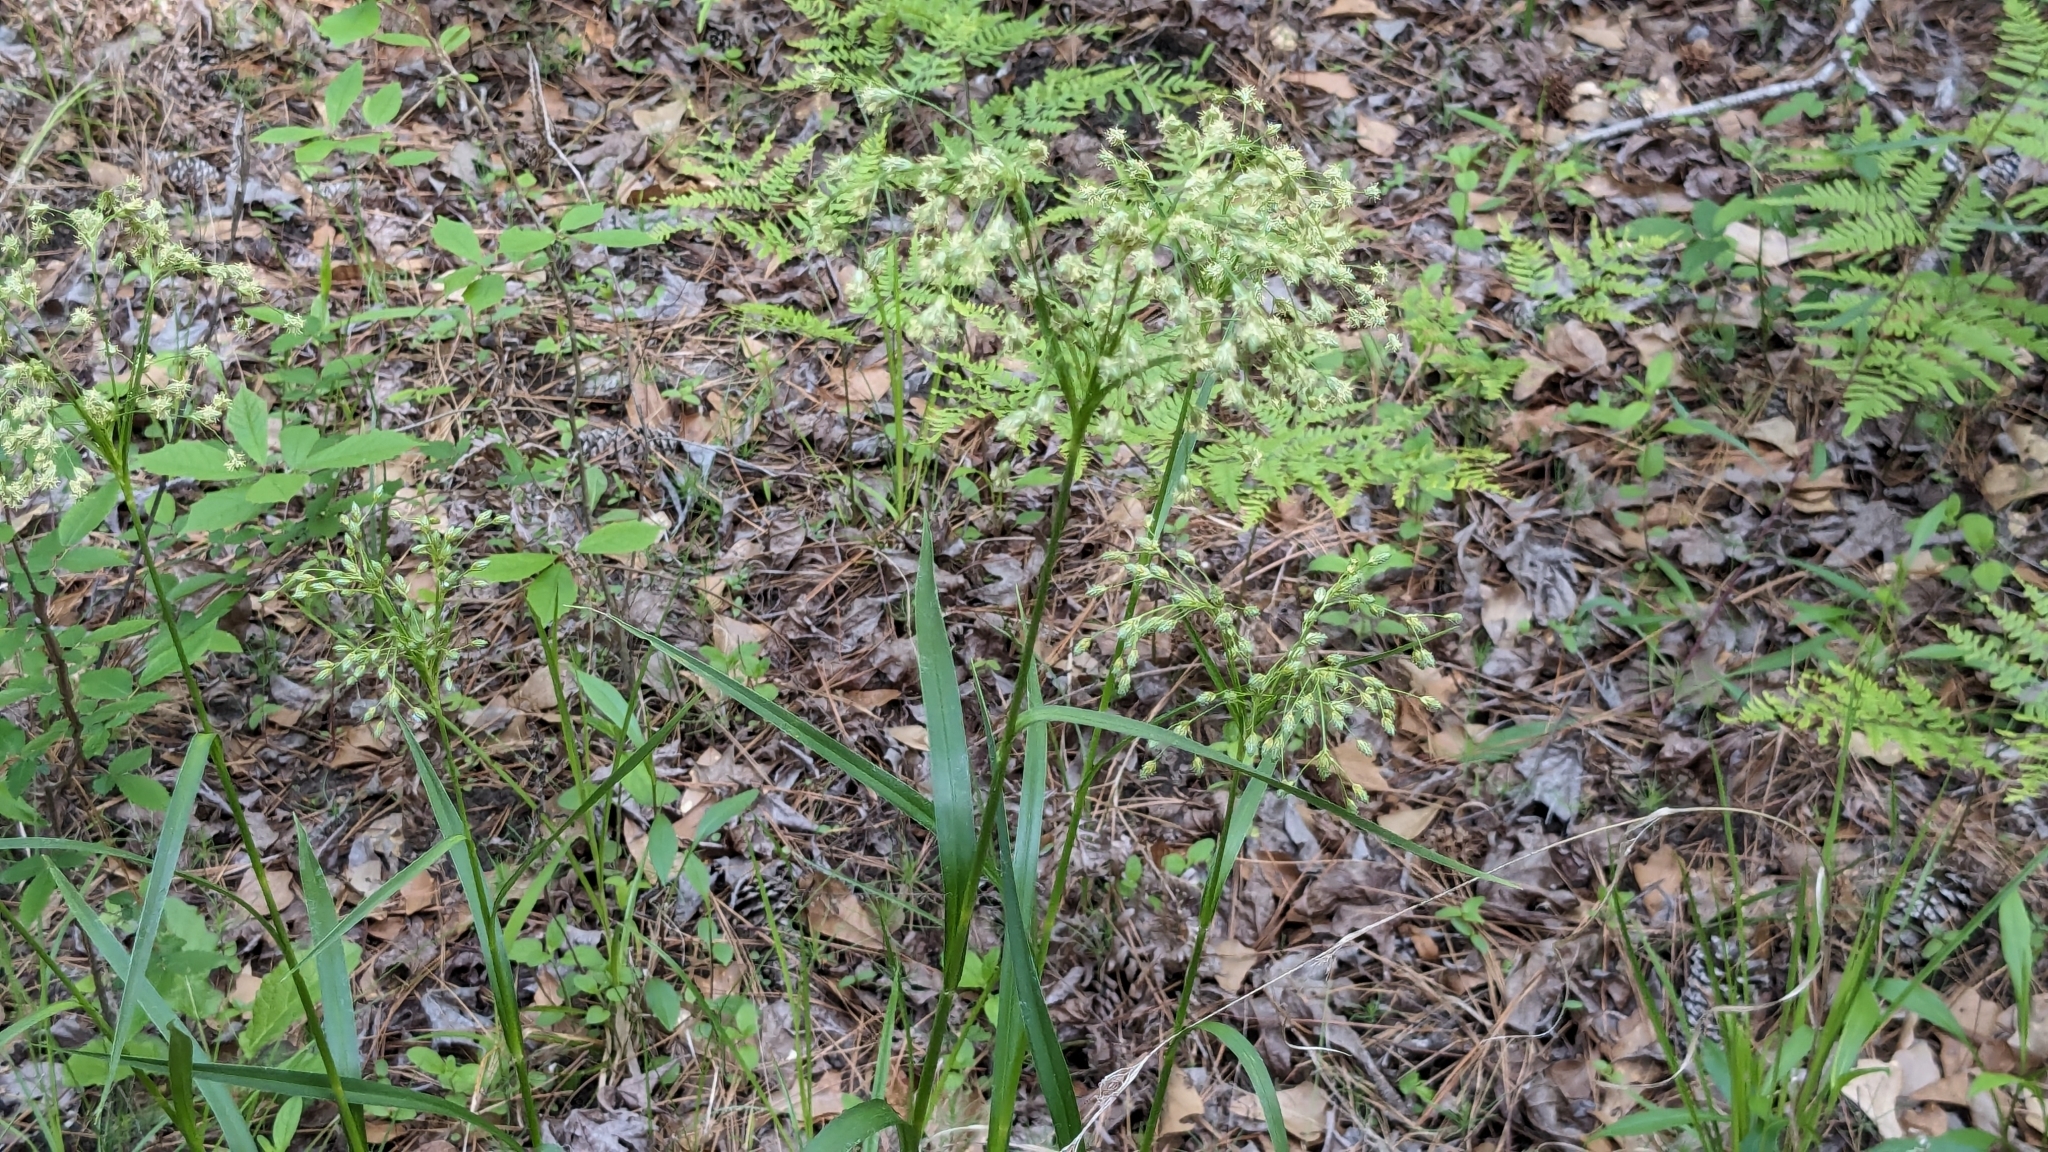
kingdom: Plantae
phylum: Tracheophyta
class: Liliopsida
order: Poales
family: Cyperaceae
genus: Scirpus
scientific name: Scirpus pendulus
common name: Nodding bulrush
